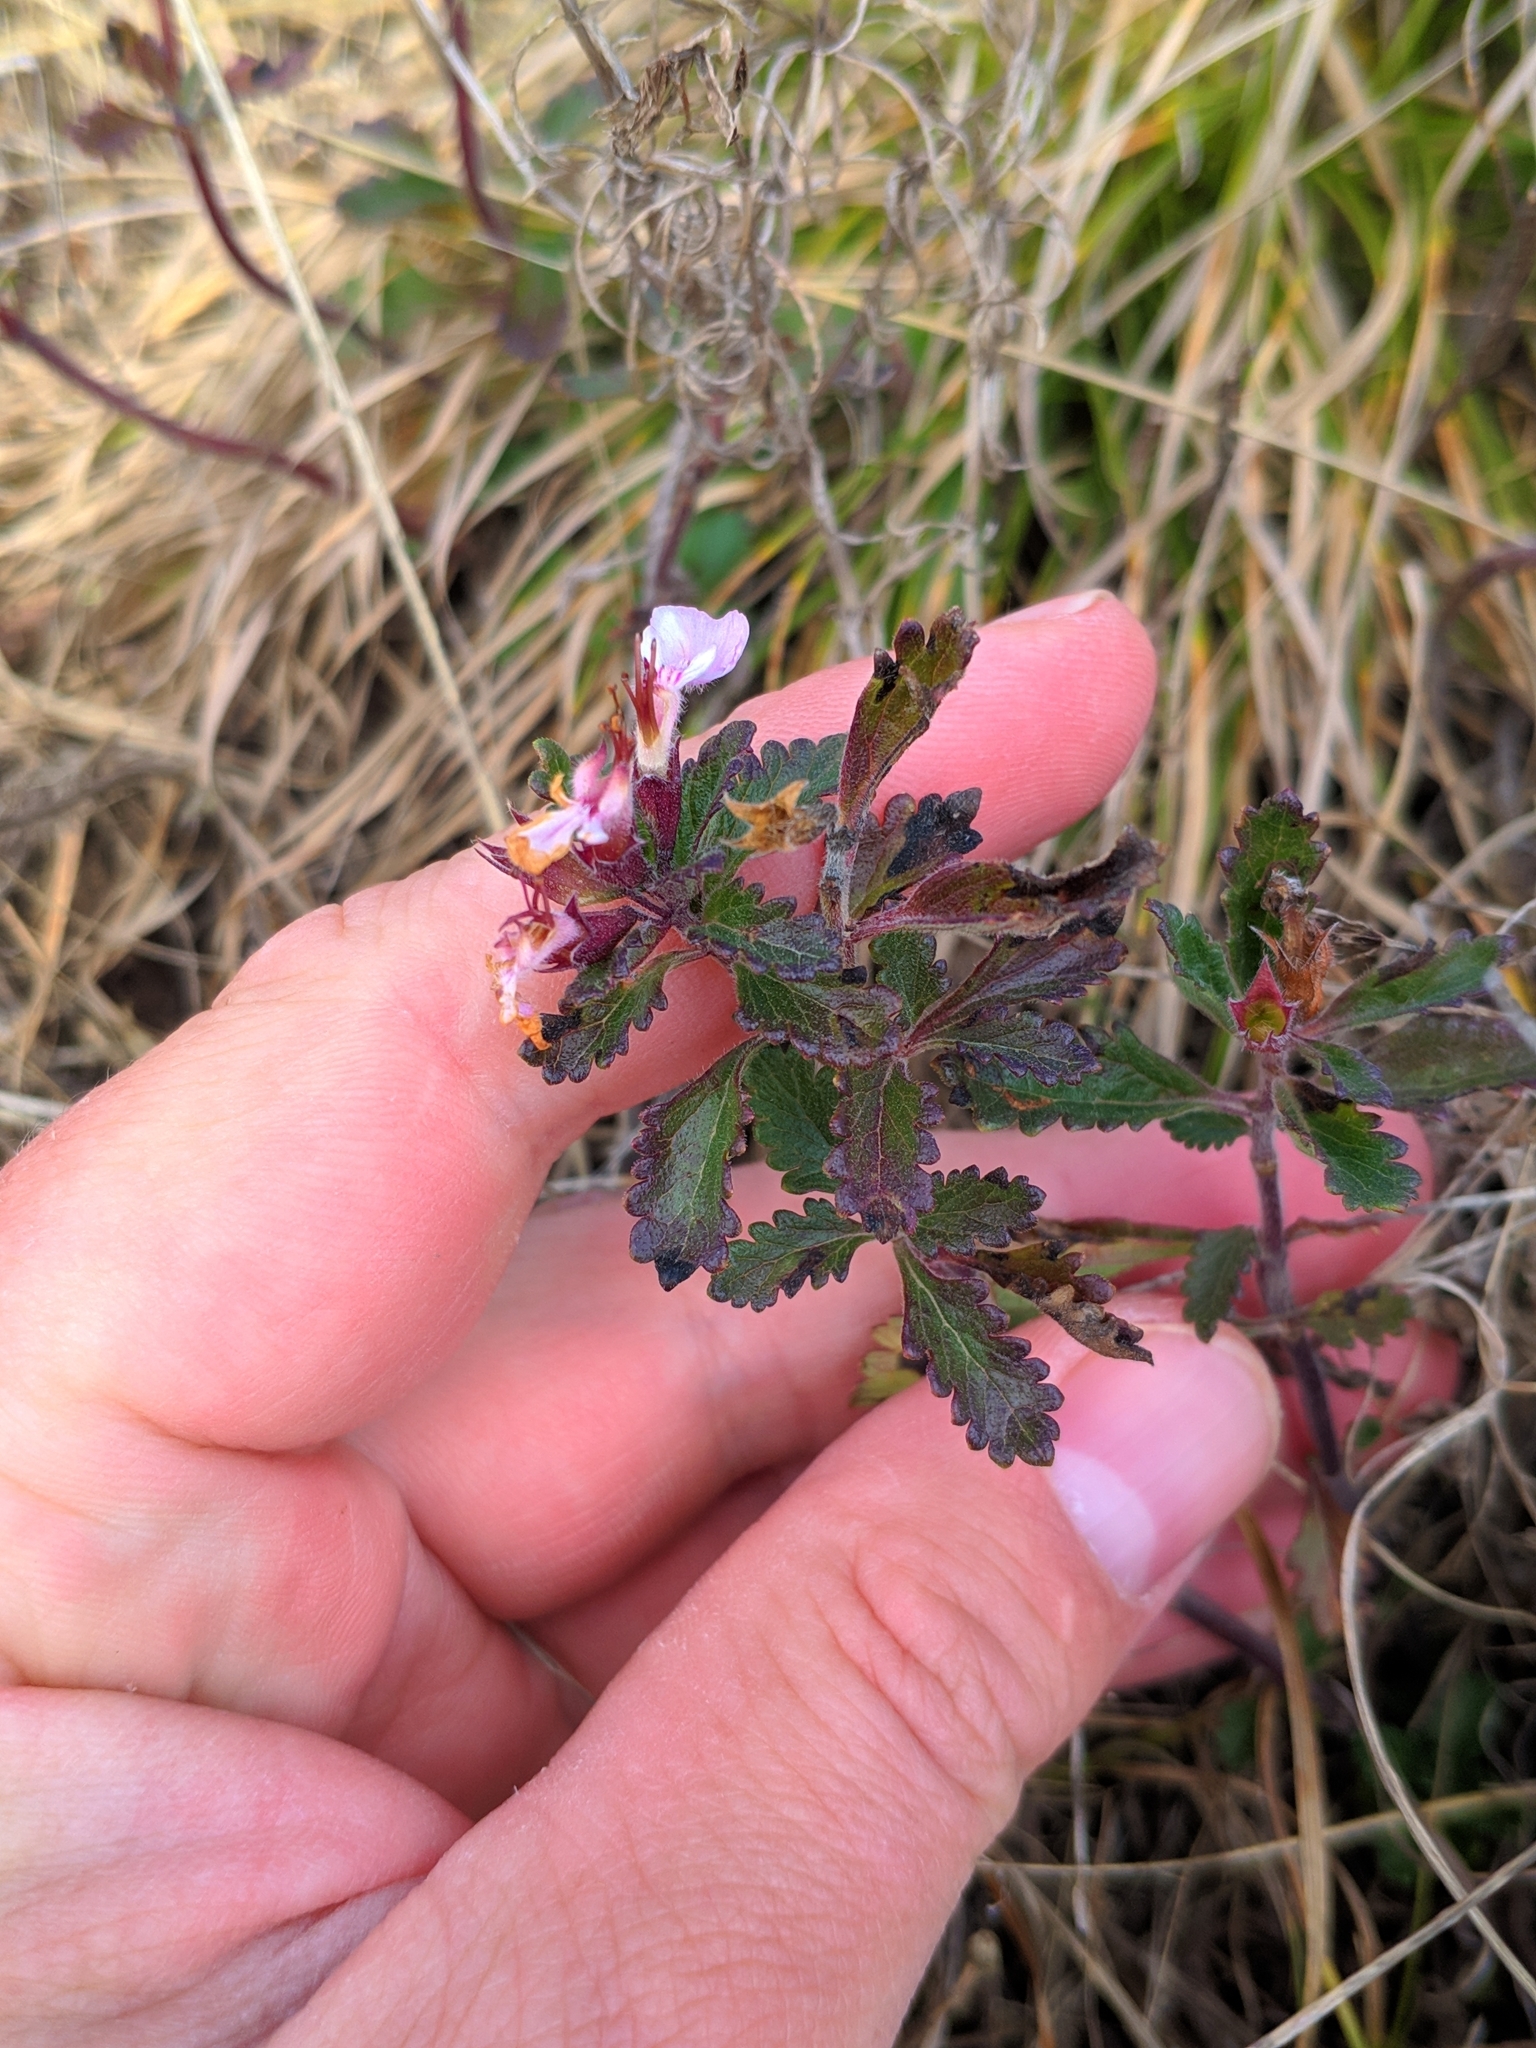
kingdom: Plantae
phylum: Tracheophyta
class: Magnoliopsida
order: Lamiales
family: Lamiaceae
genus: Teucrium
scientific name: Teucrium chamaedrys
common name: Wall germander
